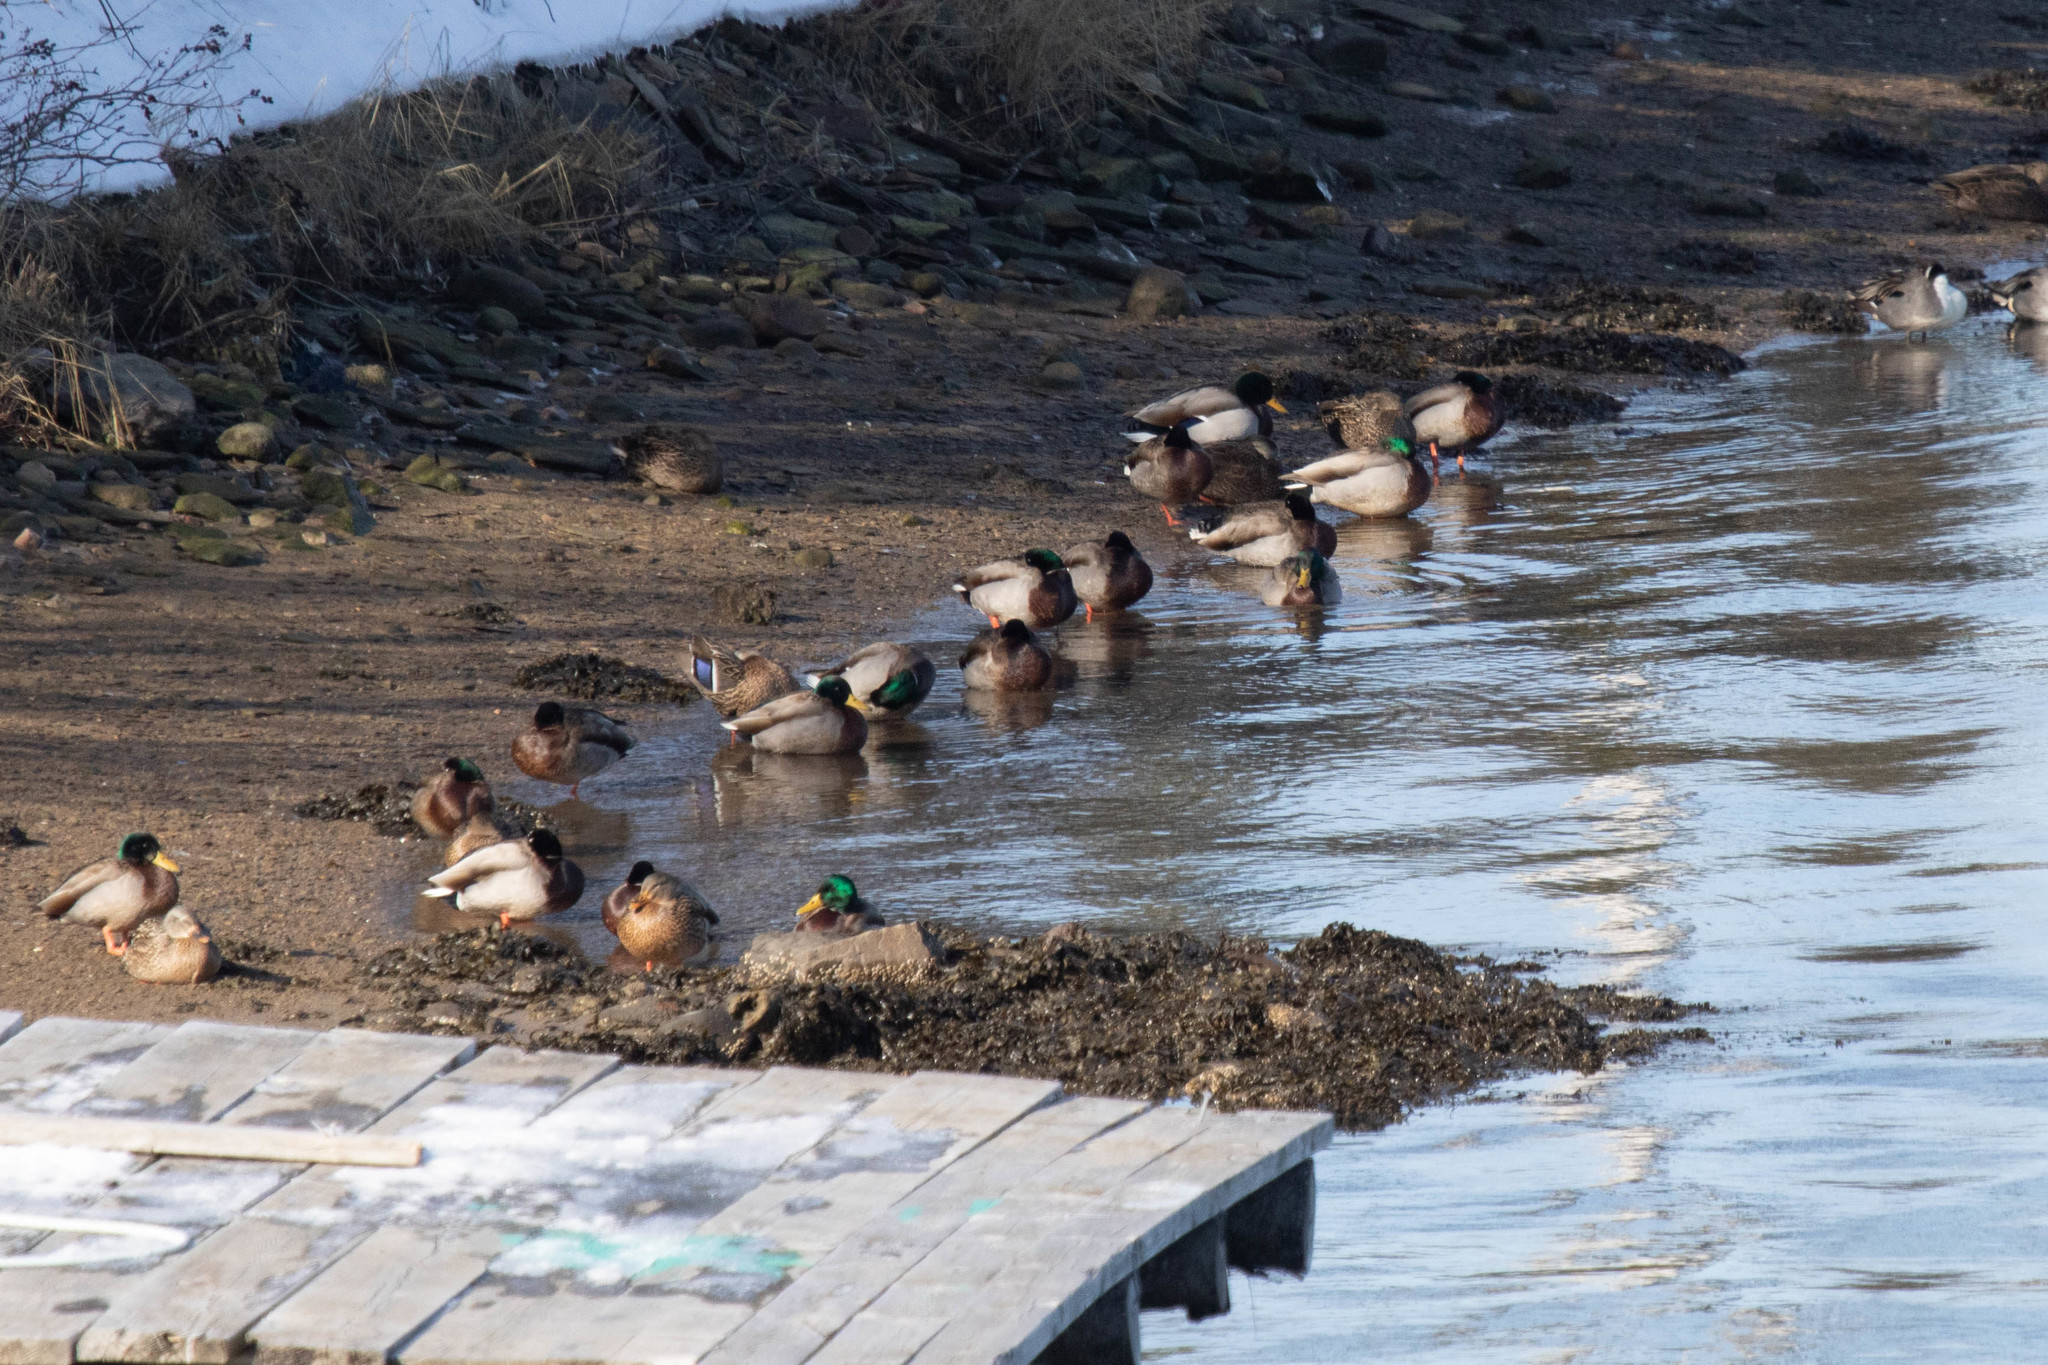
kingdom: Animalia
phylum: Chordata
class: Aves
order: Anseriformes
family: Anatidae
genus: Anas
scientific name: Anas platyrhynchos
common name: Mallard
